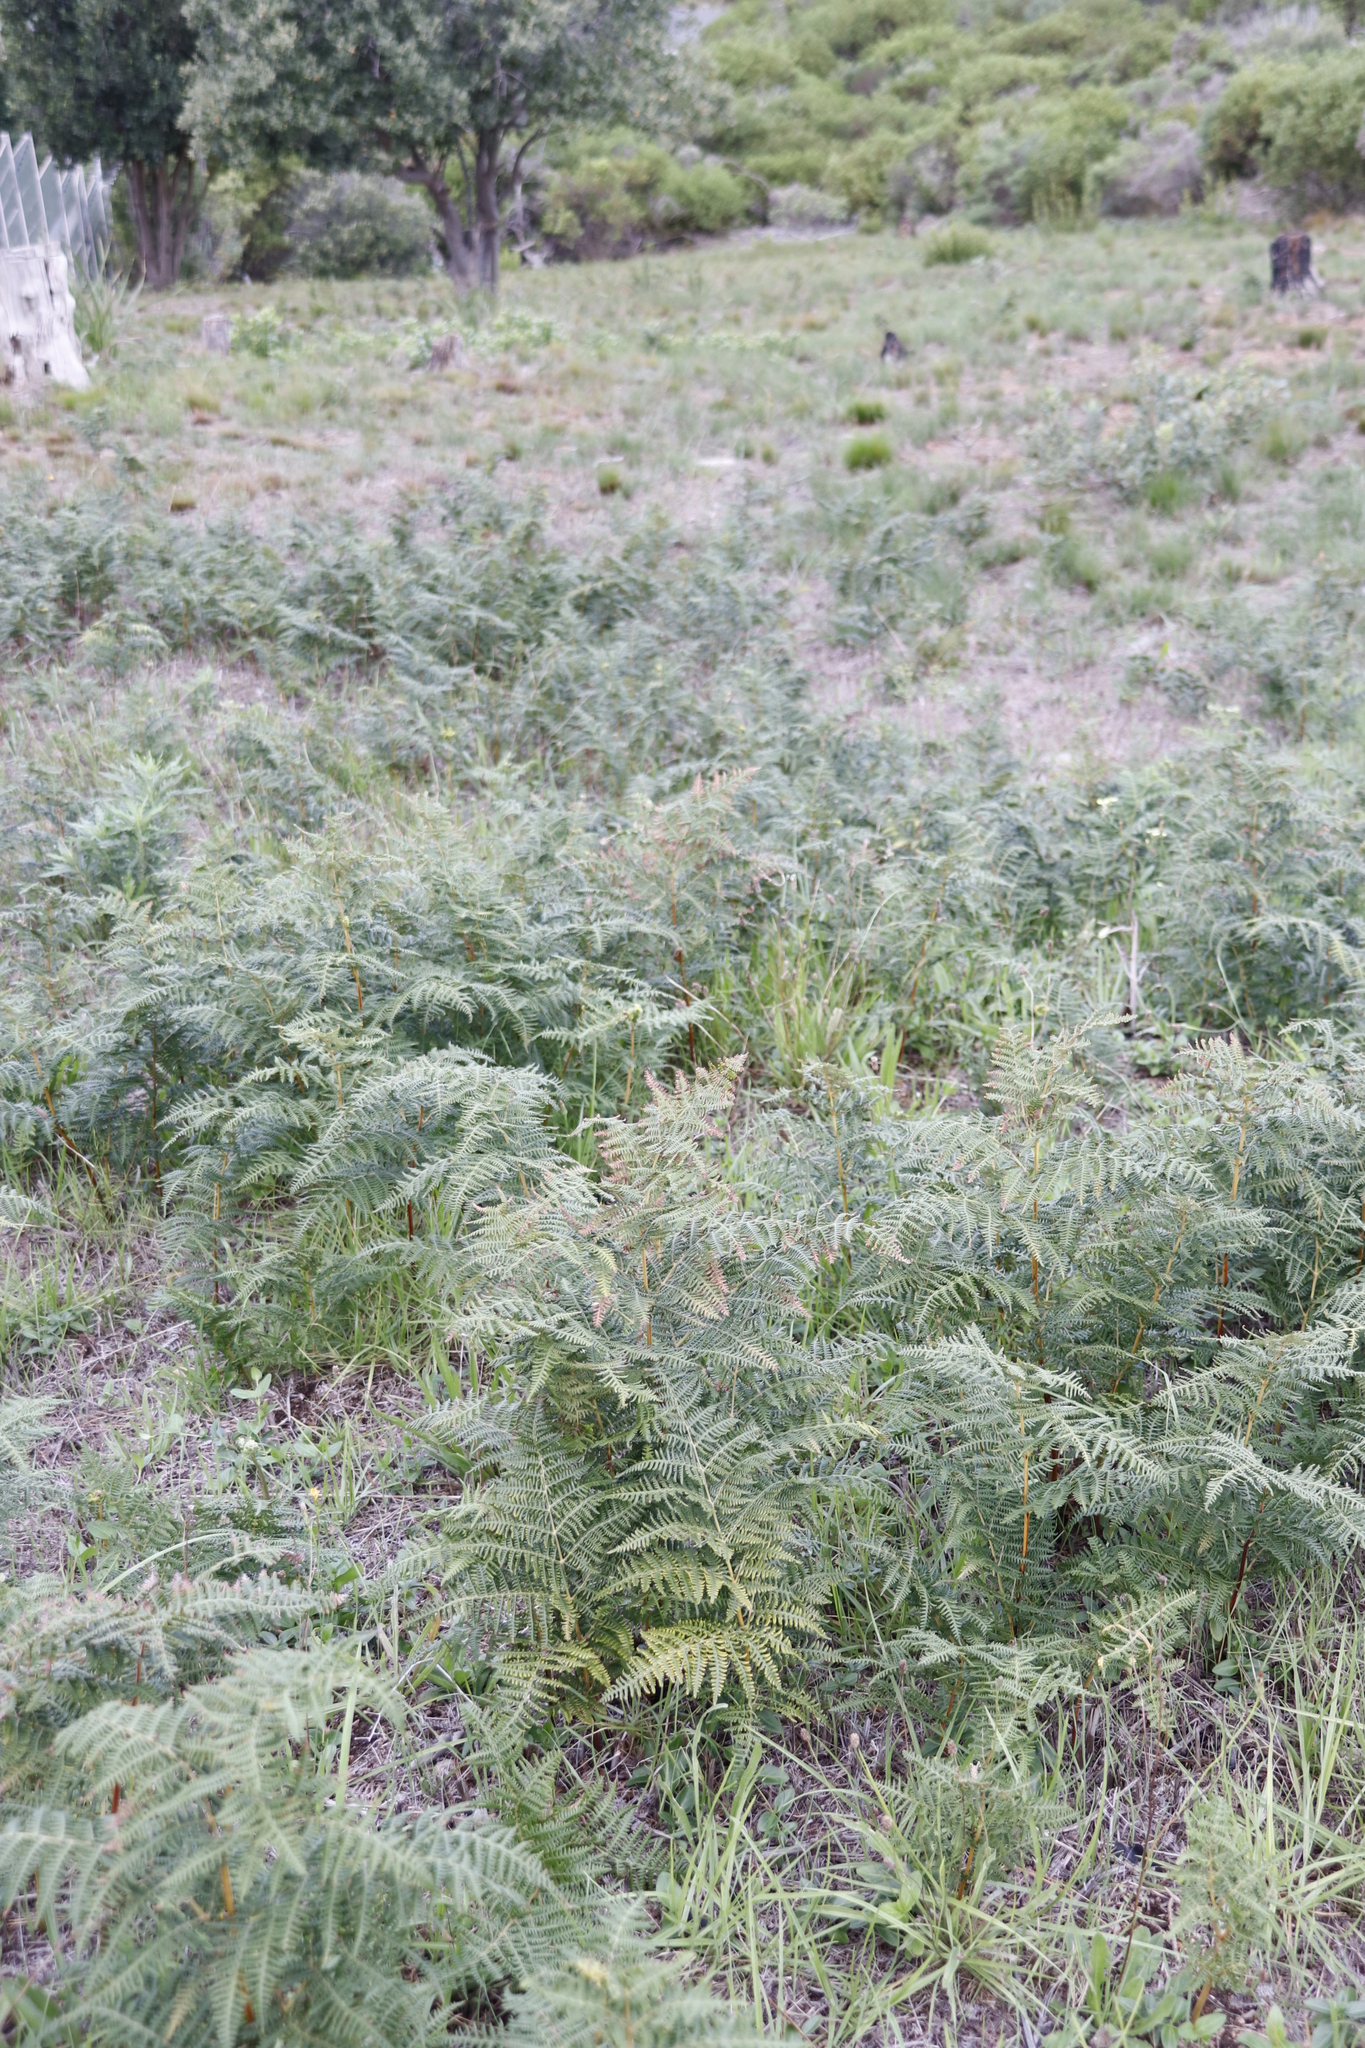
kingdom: Plantae
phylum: Tracheophyta
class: Polypodiopsida
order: Polypodiales
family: Dennstaedtiaceae
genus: Pteridium
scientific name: Pteridium aquilinum
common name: Bracken
